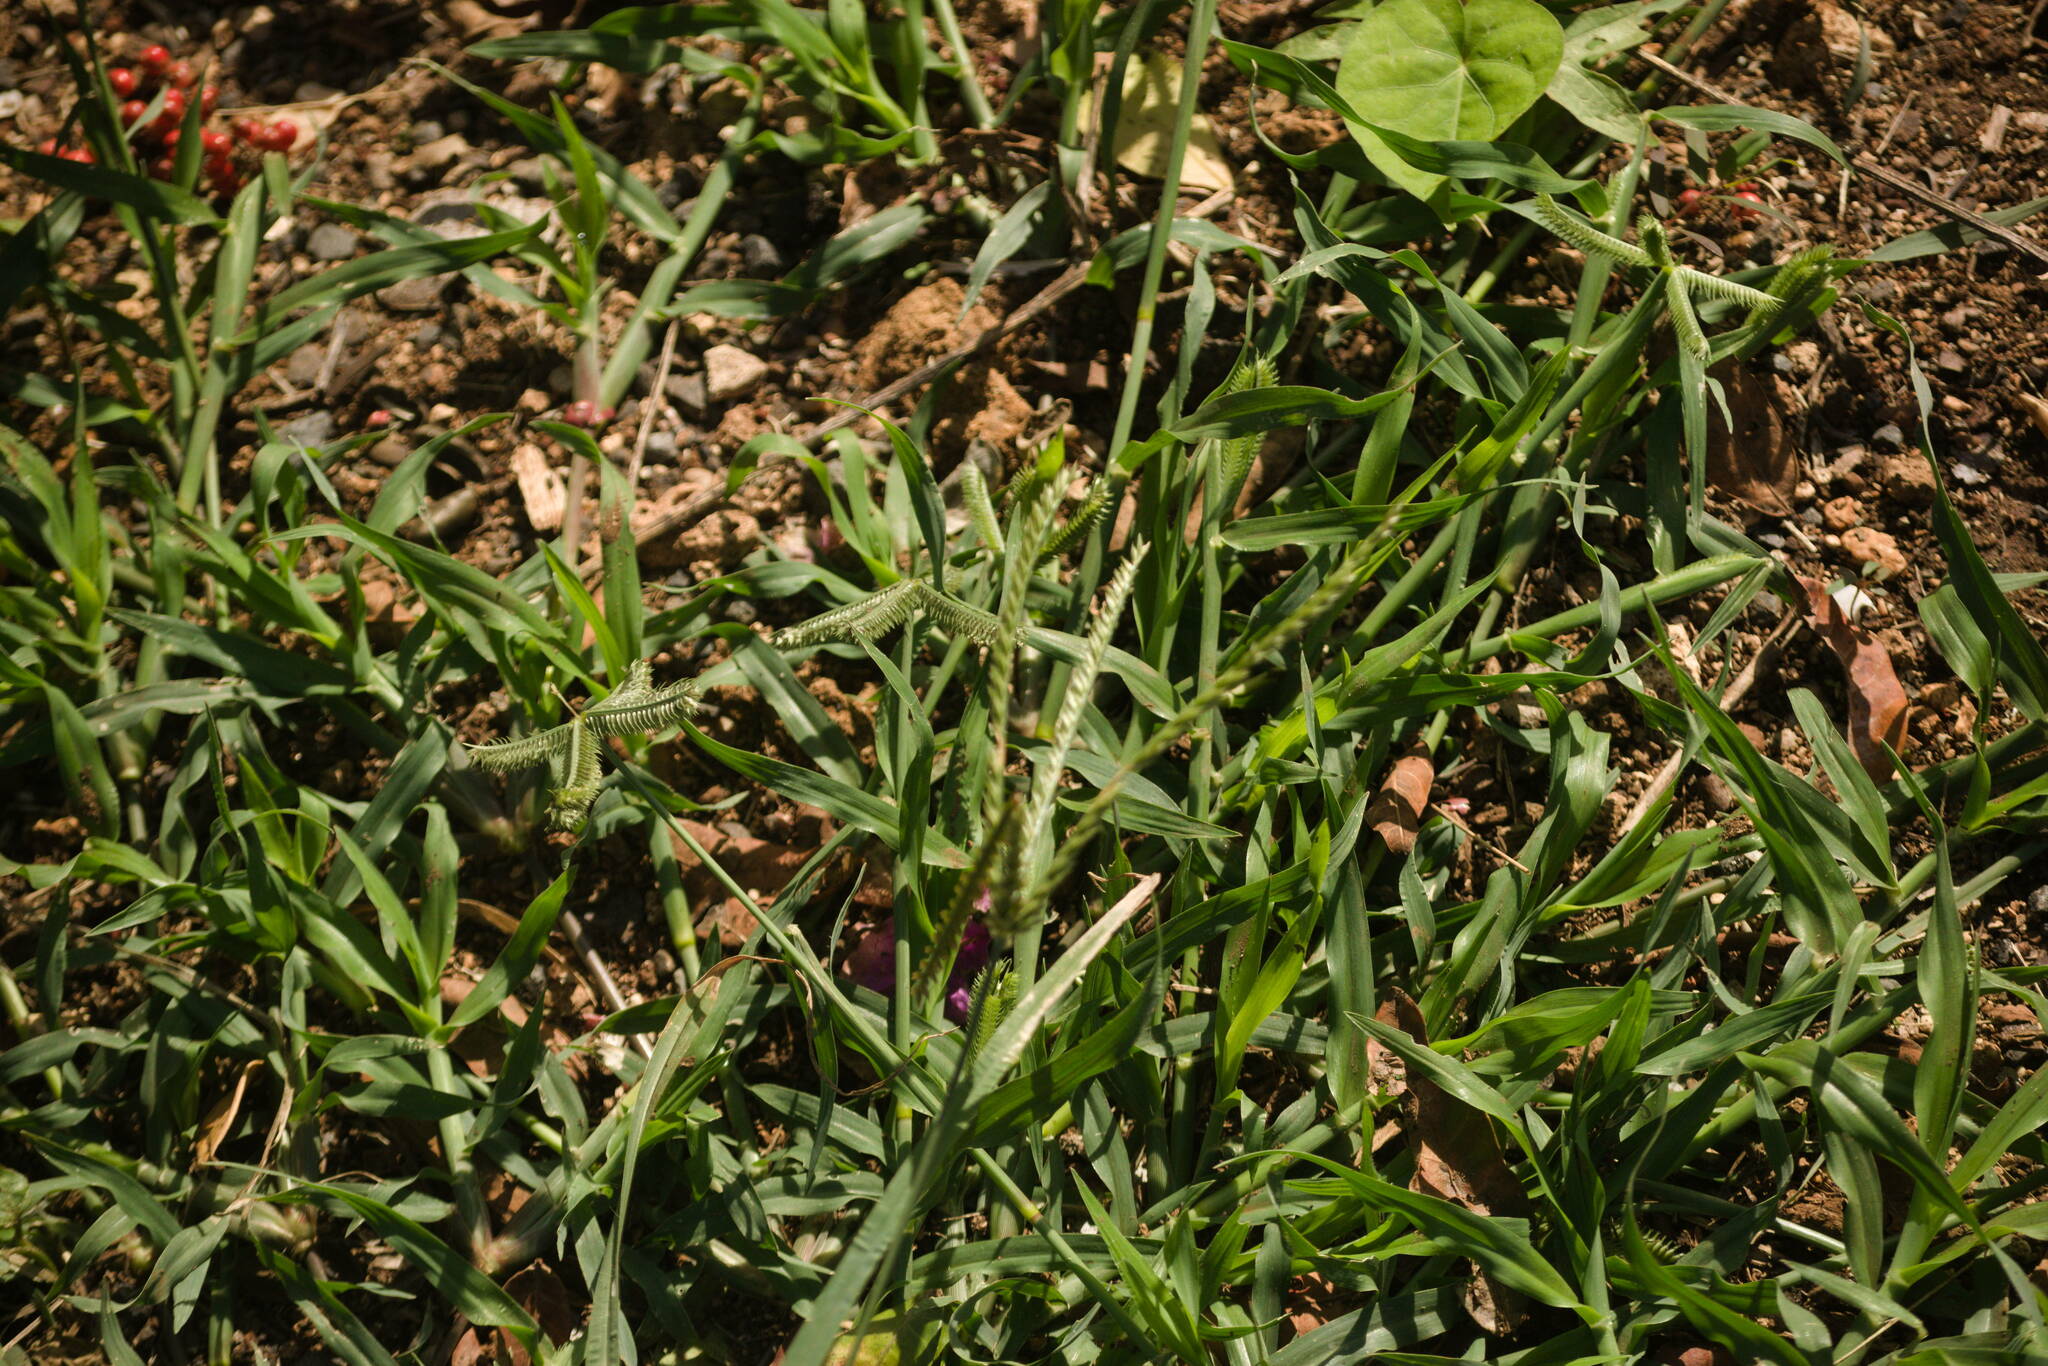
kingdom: Plantae
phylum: Tracheophyta
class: Liliopsida
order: Poales
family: Poaceae
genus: Eleusine
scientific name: Eleusine indica
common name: Yard-grass
